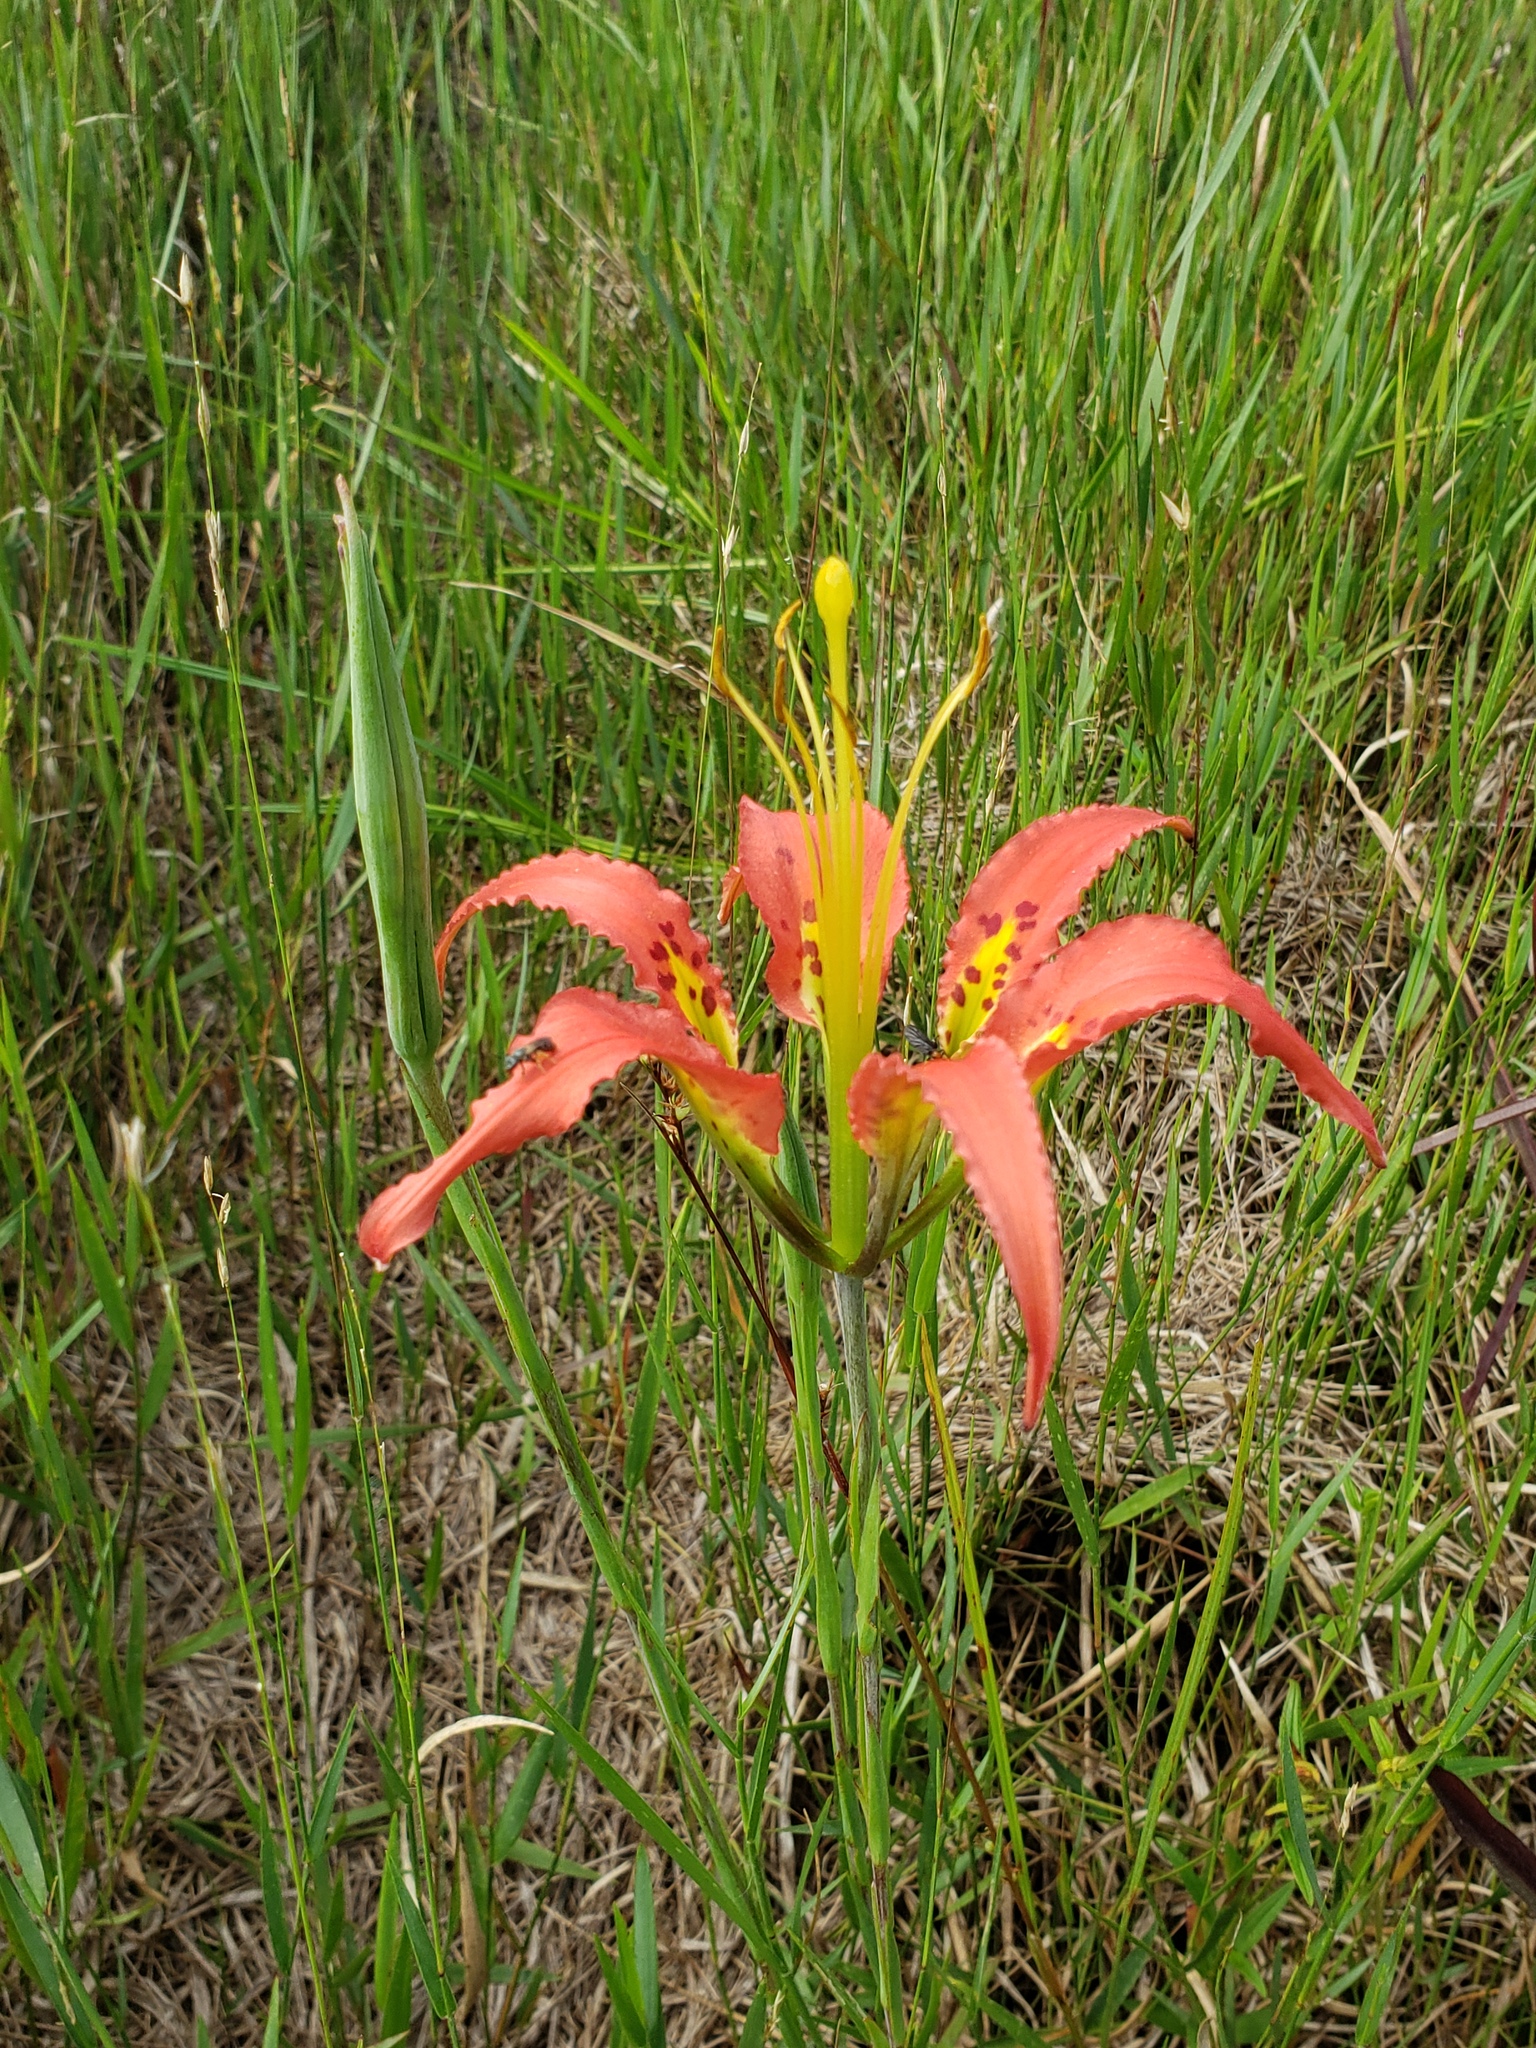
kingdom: Plantae
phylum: Tracheophyta
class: Liliopsida
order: Liliales
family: Liliaceae
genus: Lilium
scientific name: Lilium catesbaei
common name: Catesby's lily
